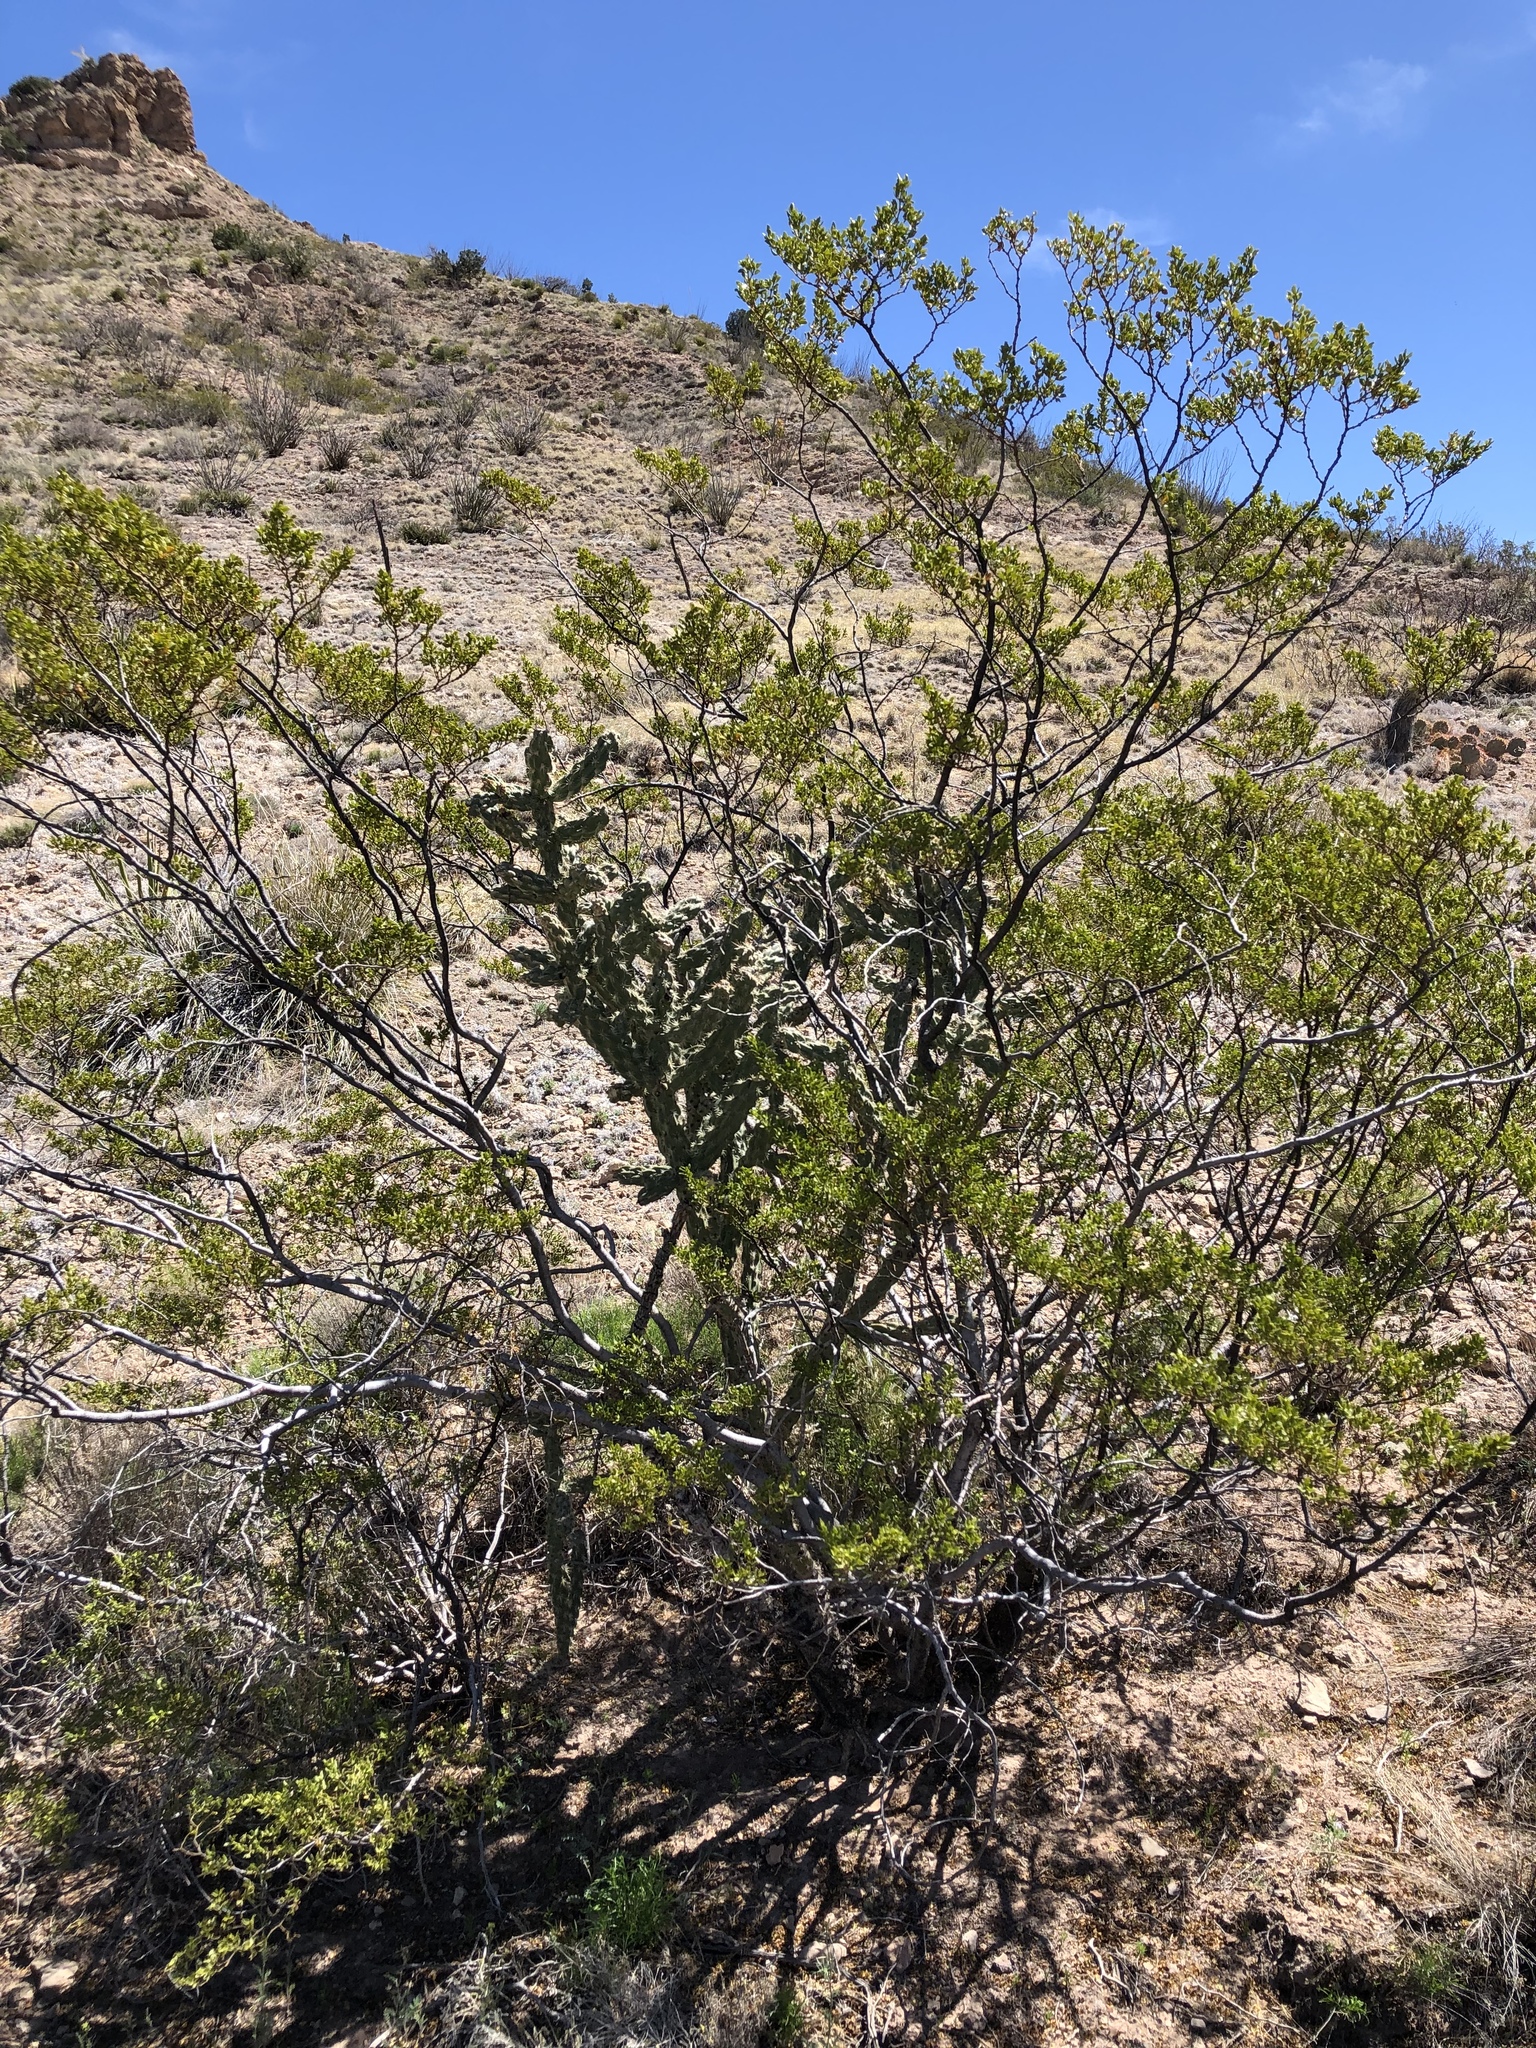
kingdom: Plantae
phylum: Tracheophyta
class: Magnoliopsida
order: Zygophyllales
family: Zygophyllaceae
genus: Larrea
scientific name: Larrea tridentata
